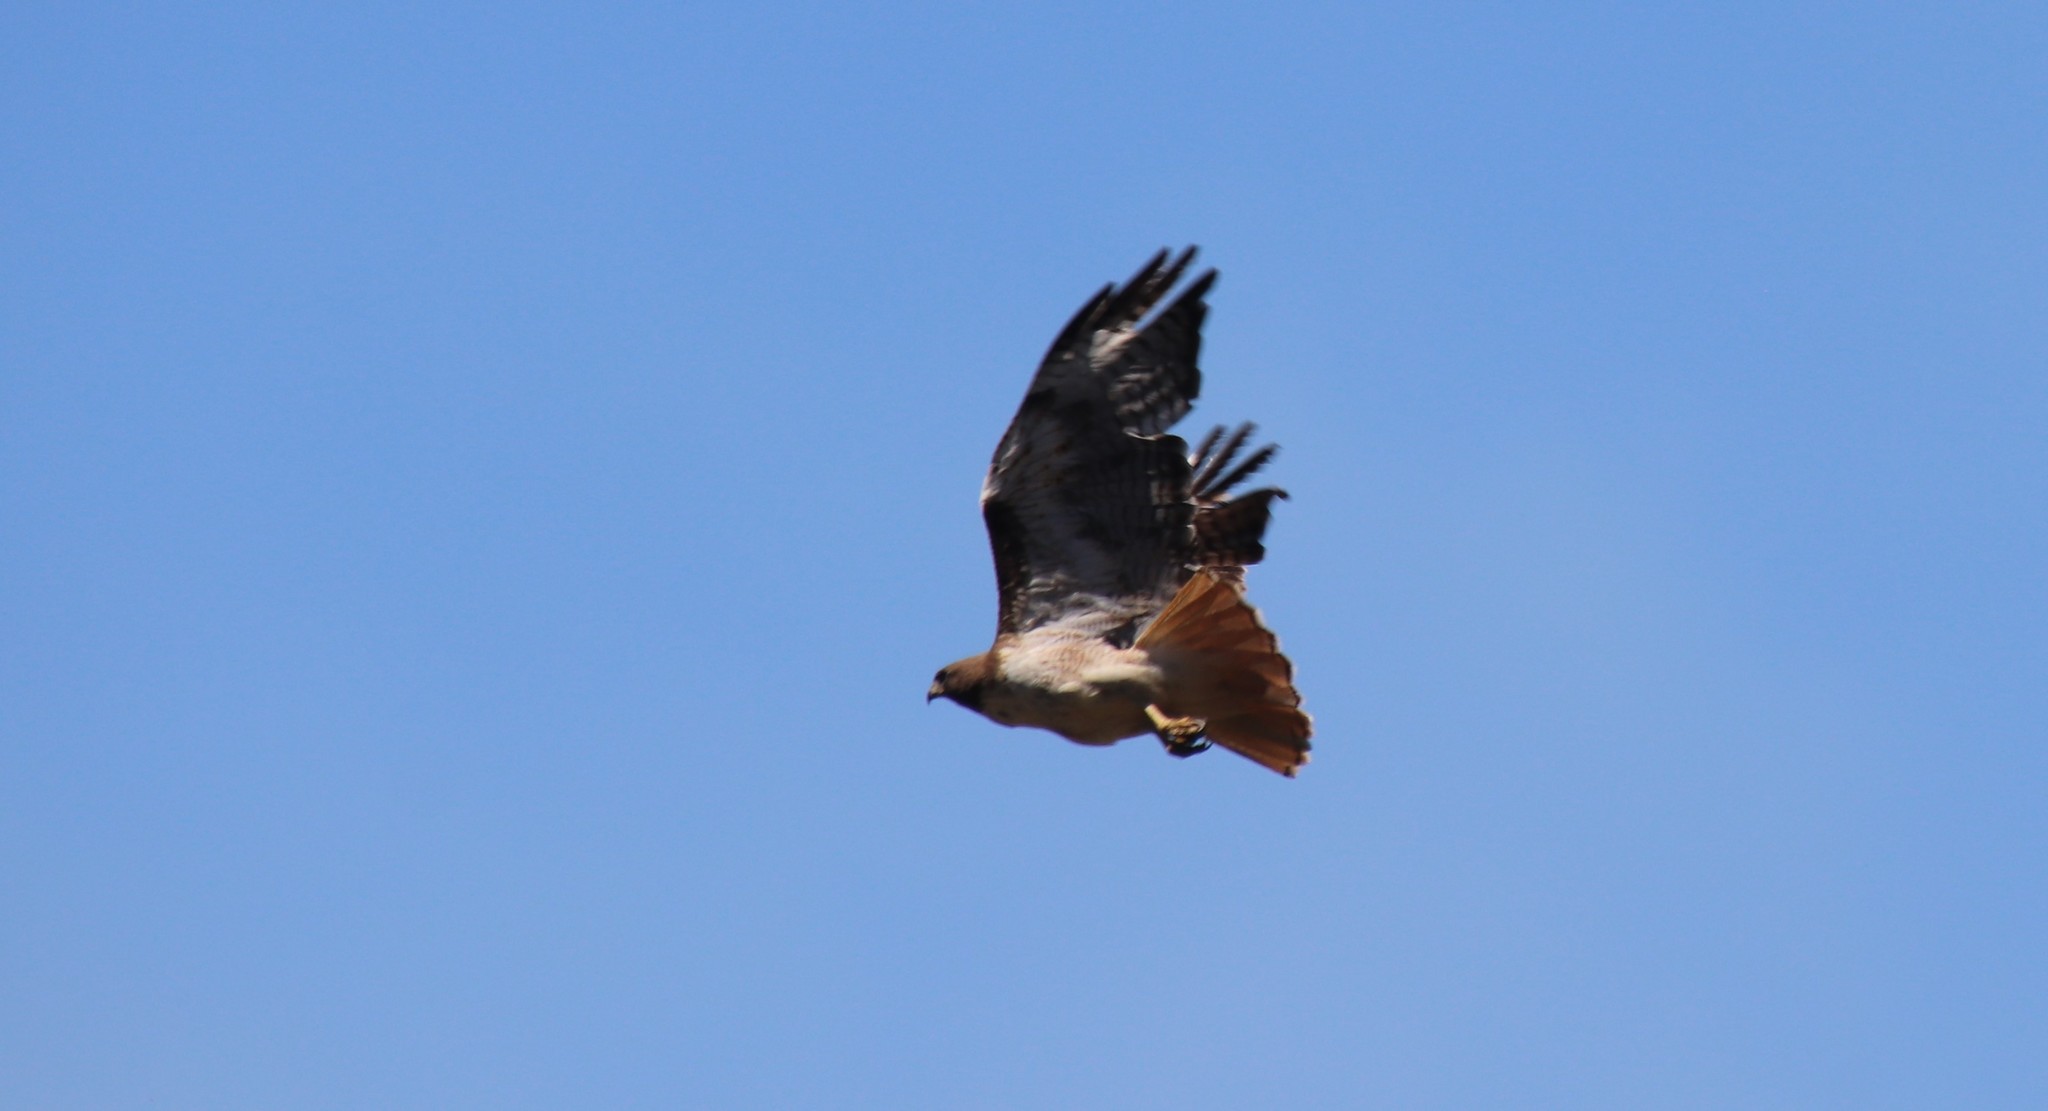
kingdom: Animalia
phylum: Chordata
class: Aves
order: Accipitriformes
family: Accipitridae
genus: Buteo
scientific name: Buteo jamaicensis
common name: Red-tailed hawk
